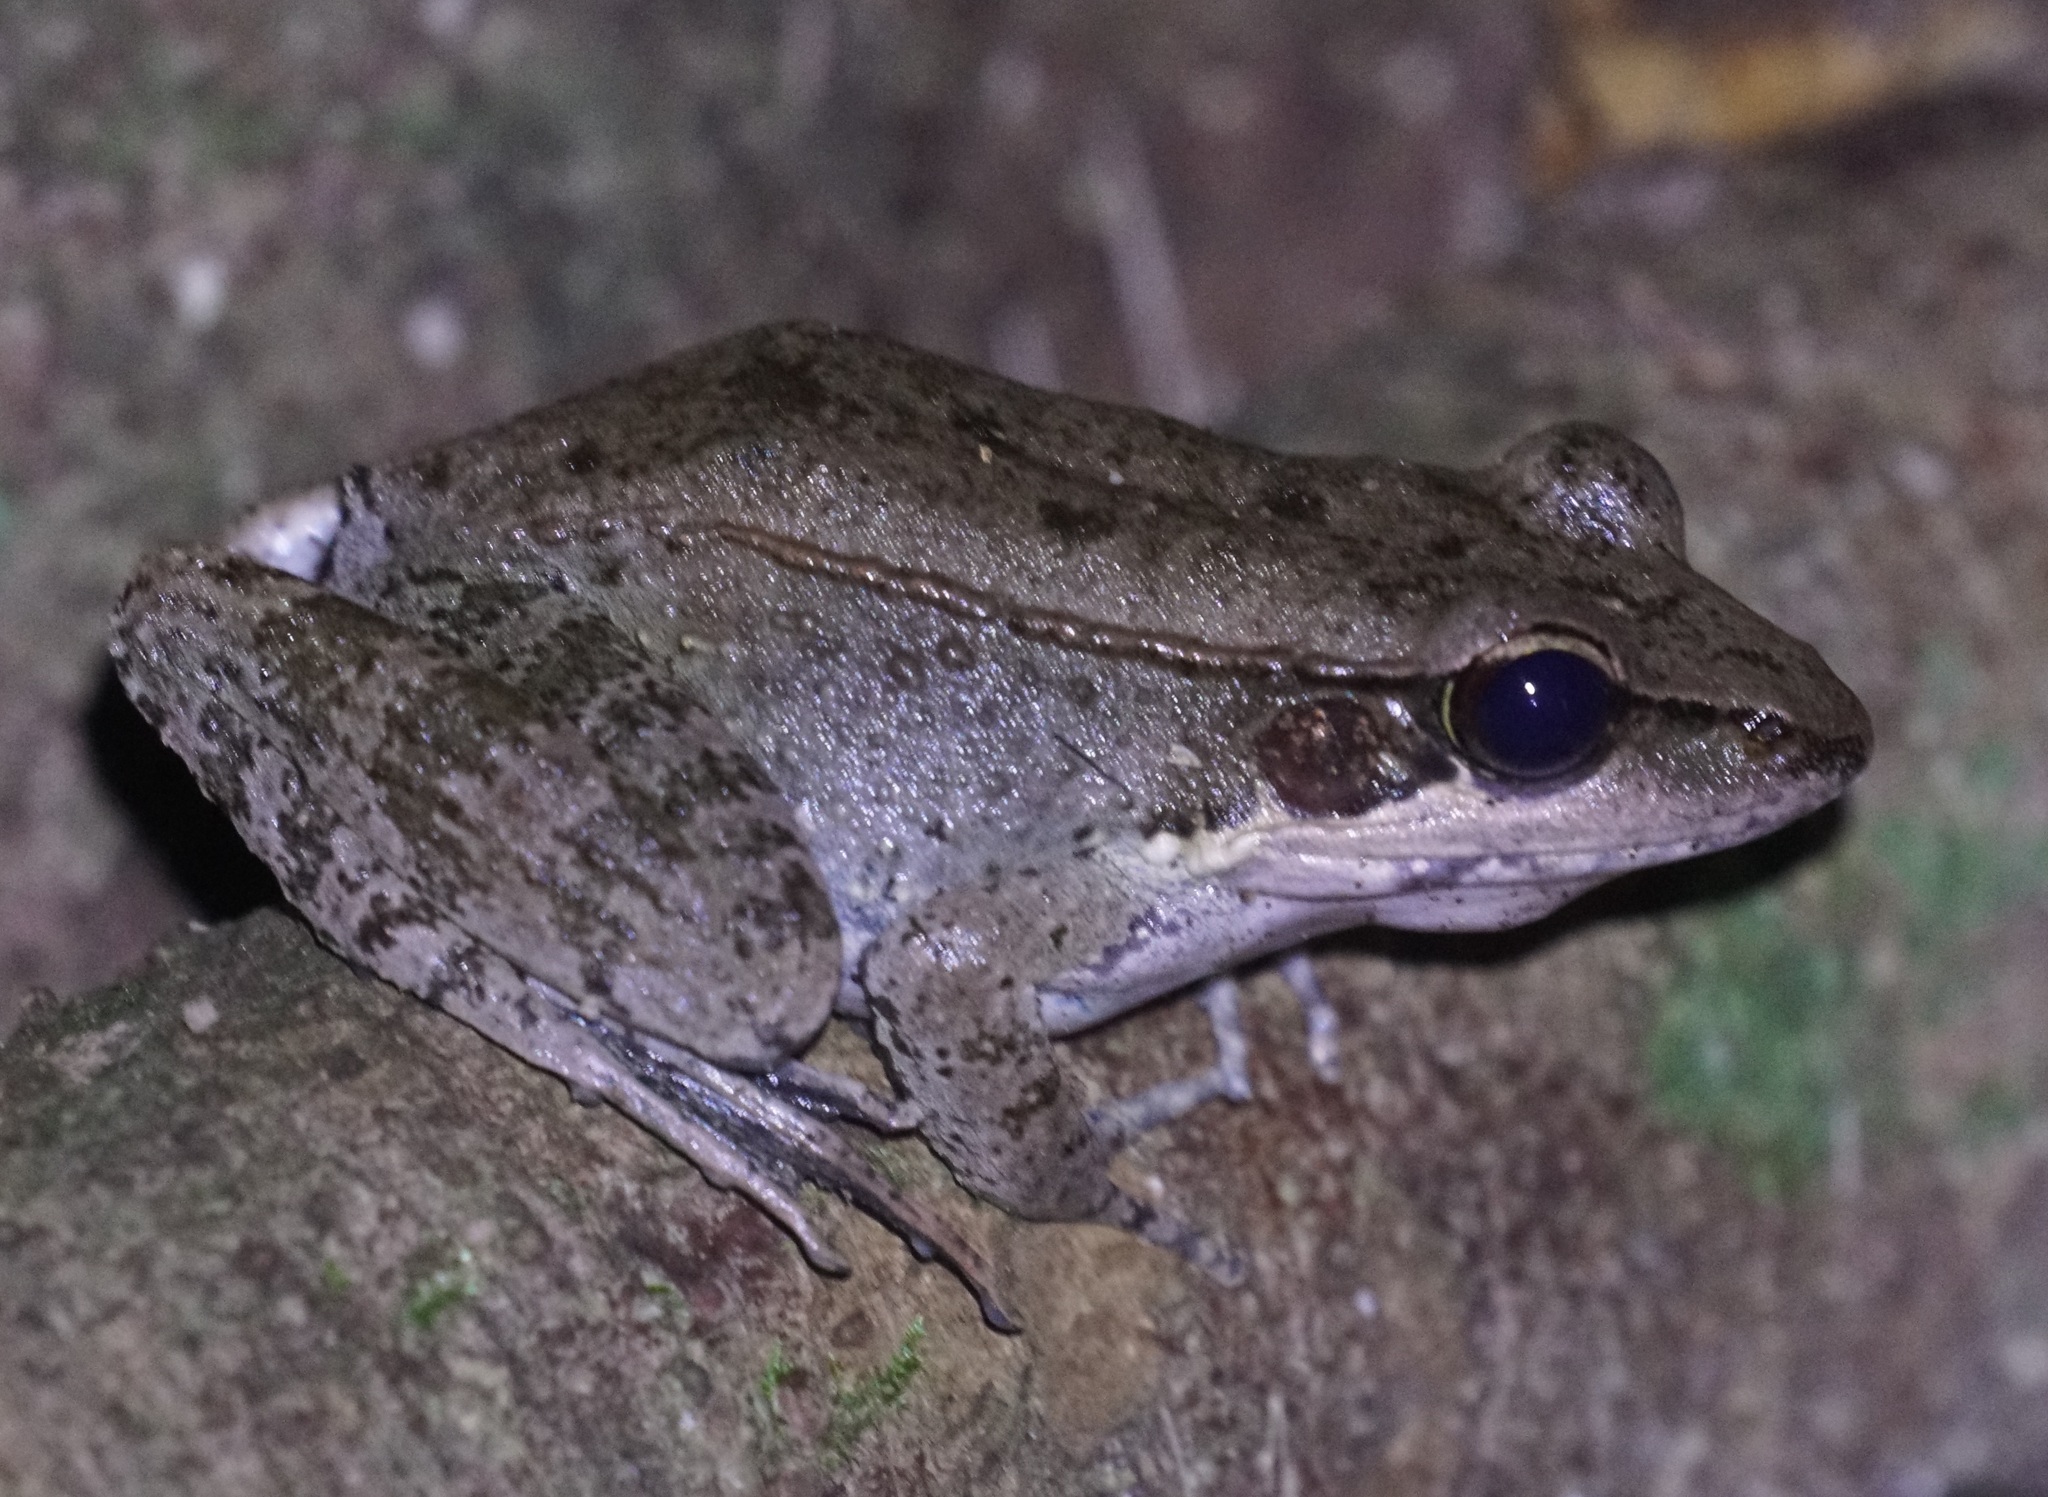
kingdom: Animalia
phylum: Chordata
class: Amphibia
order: Anura
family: Ranidae
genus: Papurana
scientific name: Papurana daemeli
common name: Arhem rana
